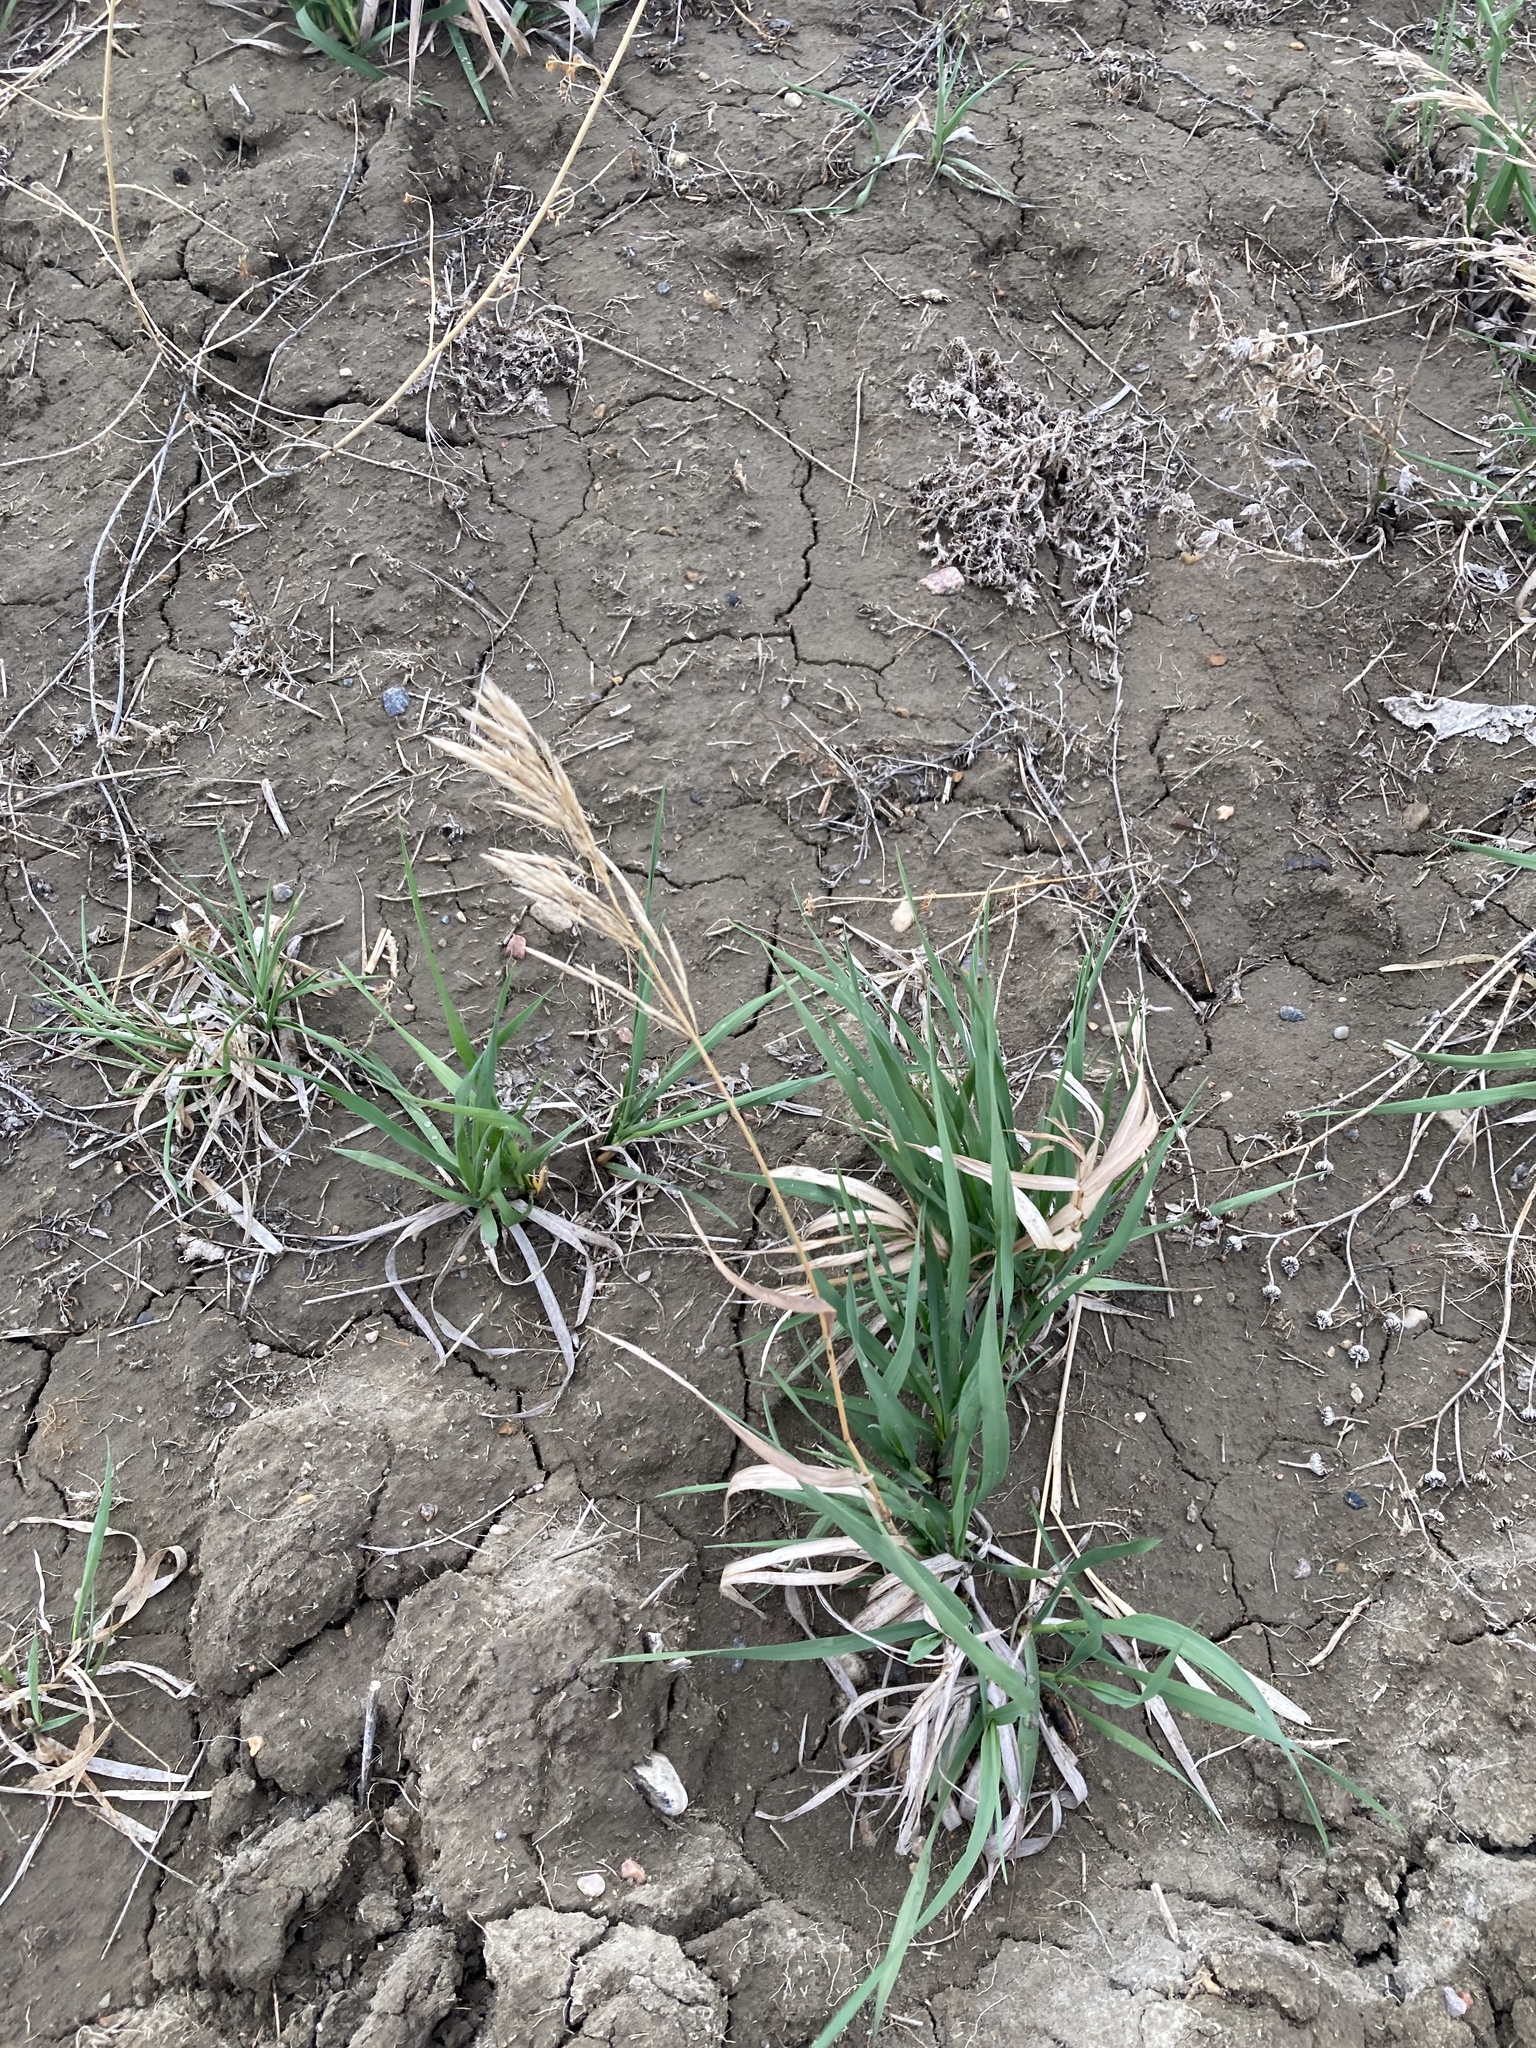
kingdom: Plantae
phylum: Tracheophyta
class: Liliopsida
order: Poales
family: Poaceae
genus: Bromus
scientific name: Bromus inermis
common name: Smooth brome
